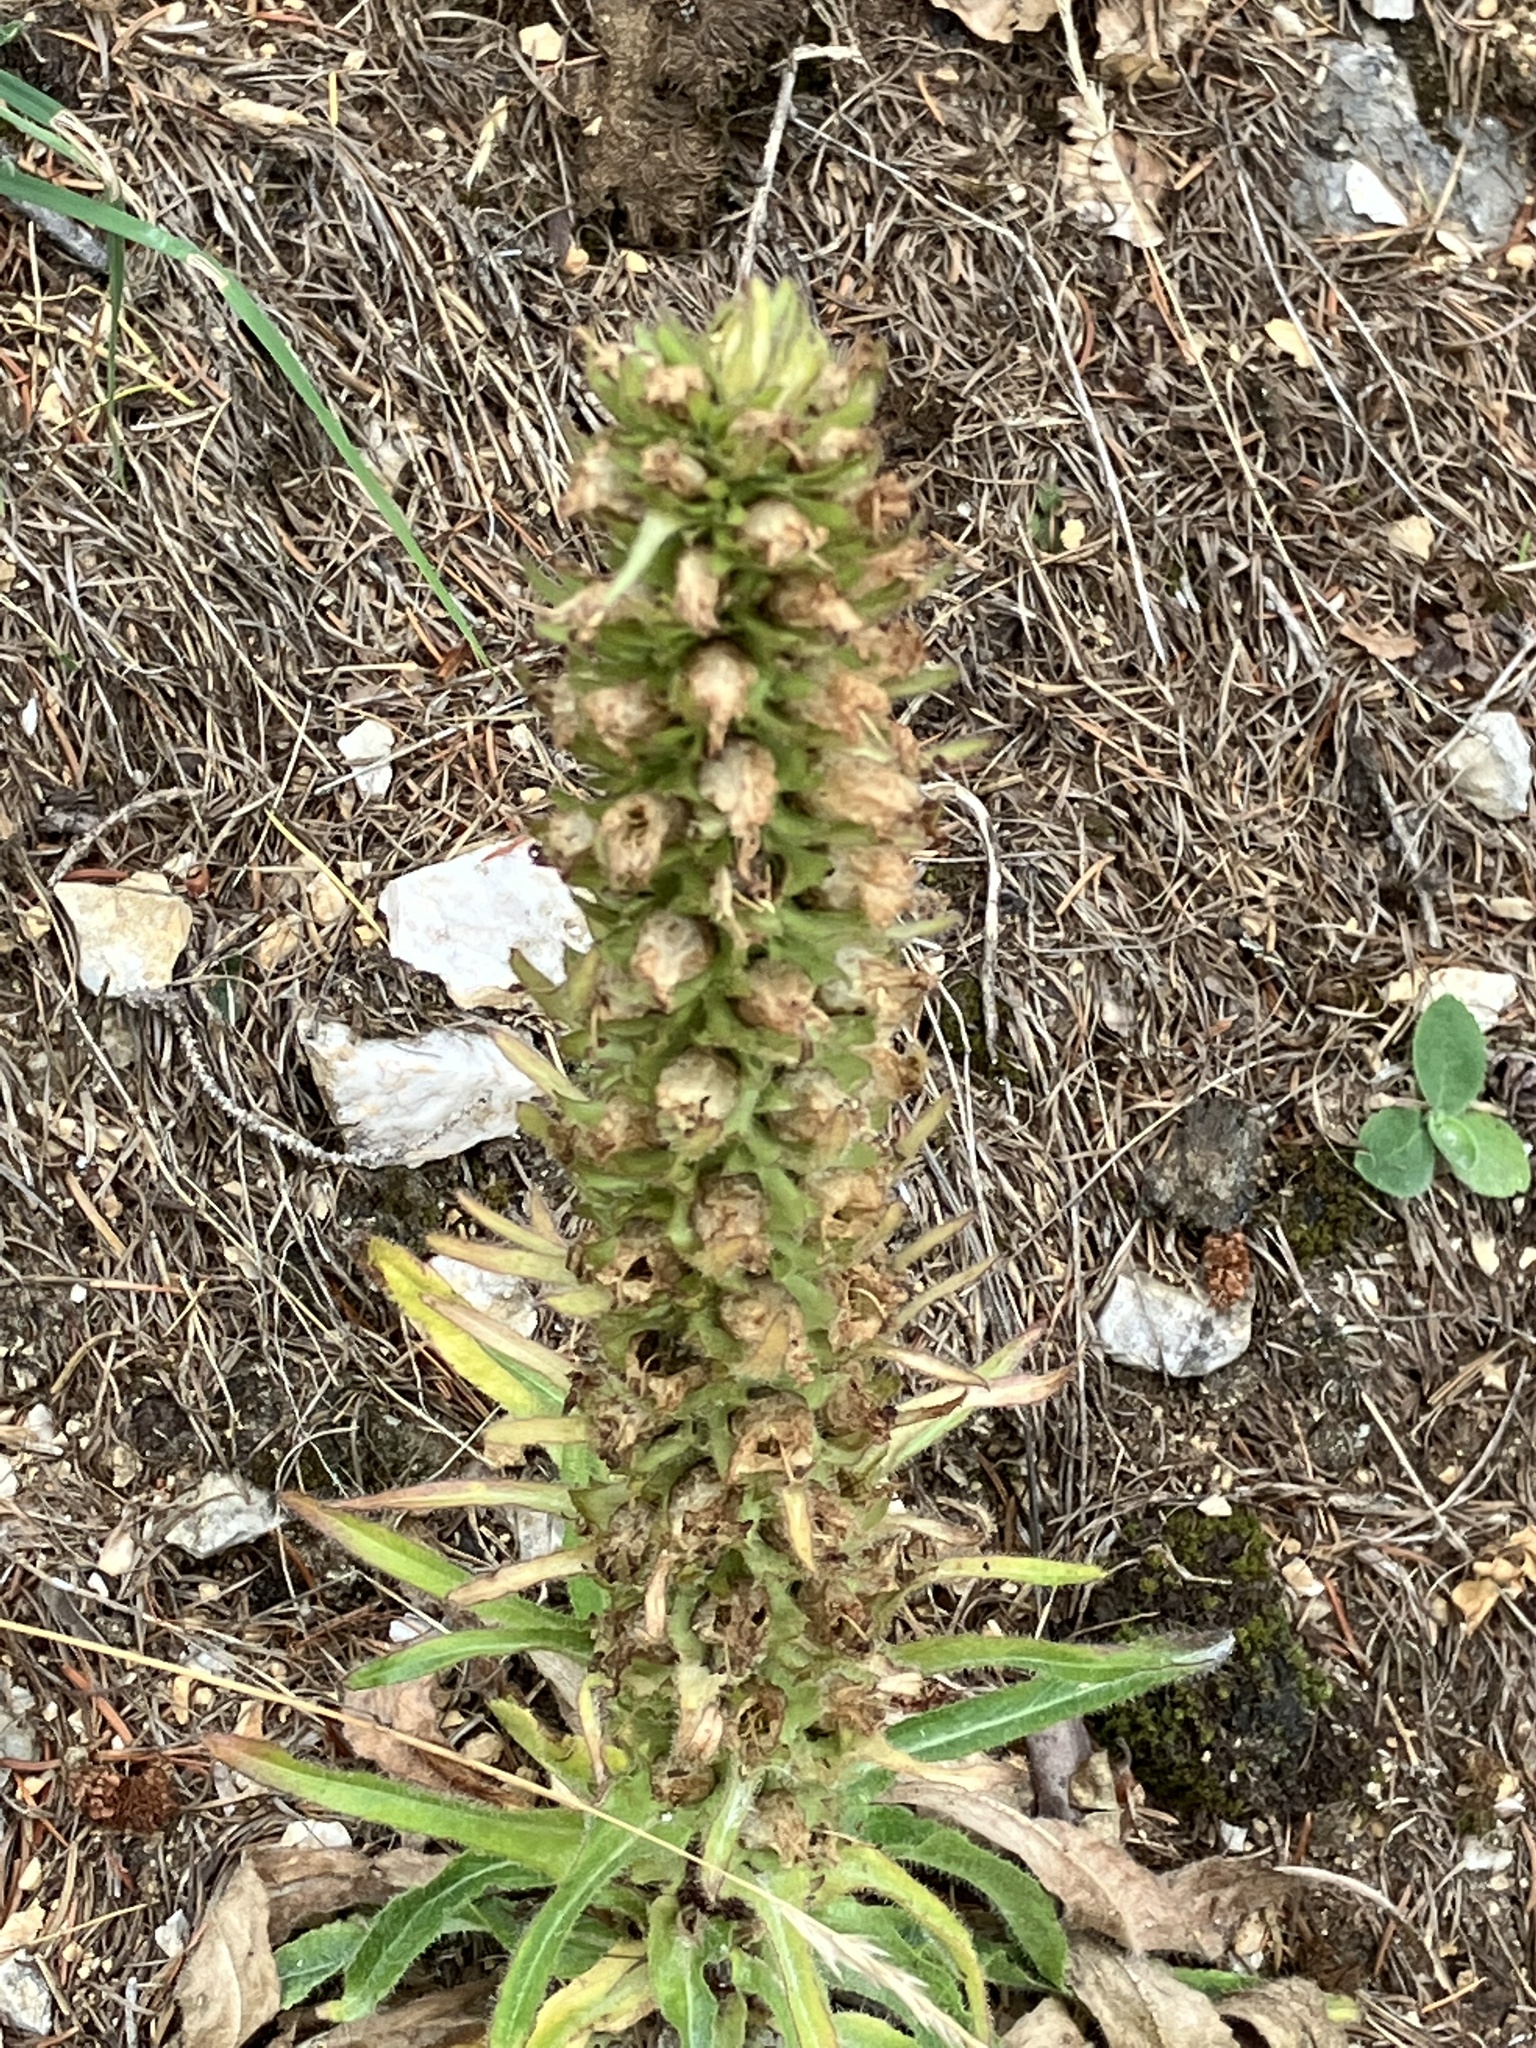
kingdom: Plantae
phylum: Tracheophyta
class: Magnoliopsida
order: Asterales
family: Campanulaceae
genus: Campanula
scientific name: Campanula thyrsoides
